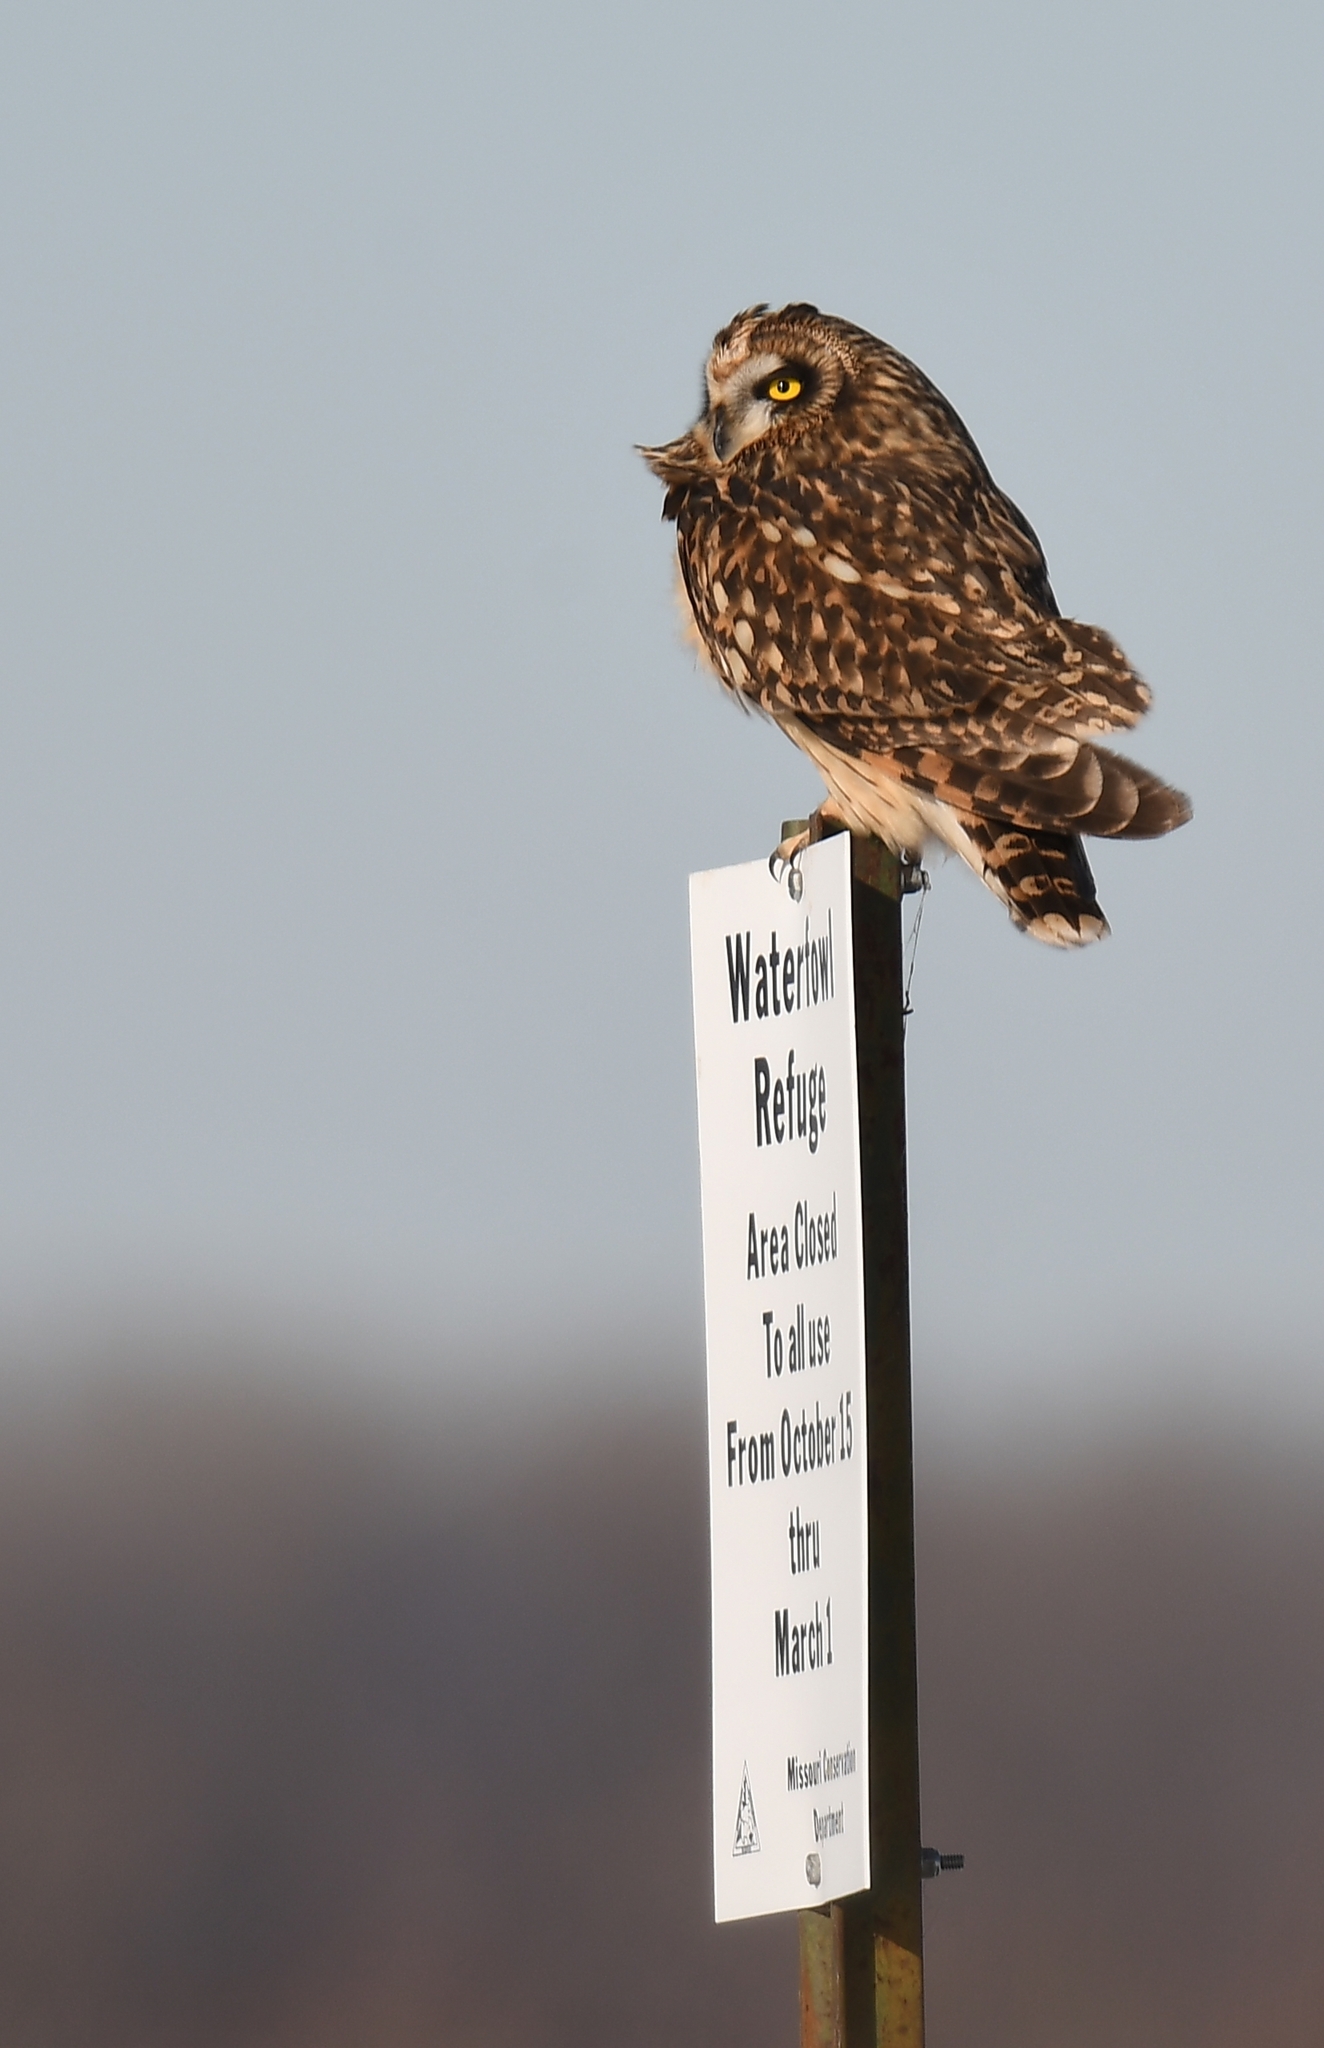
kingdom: Animalia
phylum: Chordata
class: Aves
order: Strigiformes
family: Strigidae
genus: Asio
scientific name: Asio flammeus
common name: Short-eared owl
